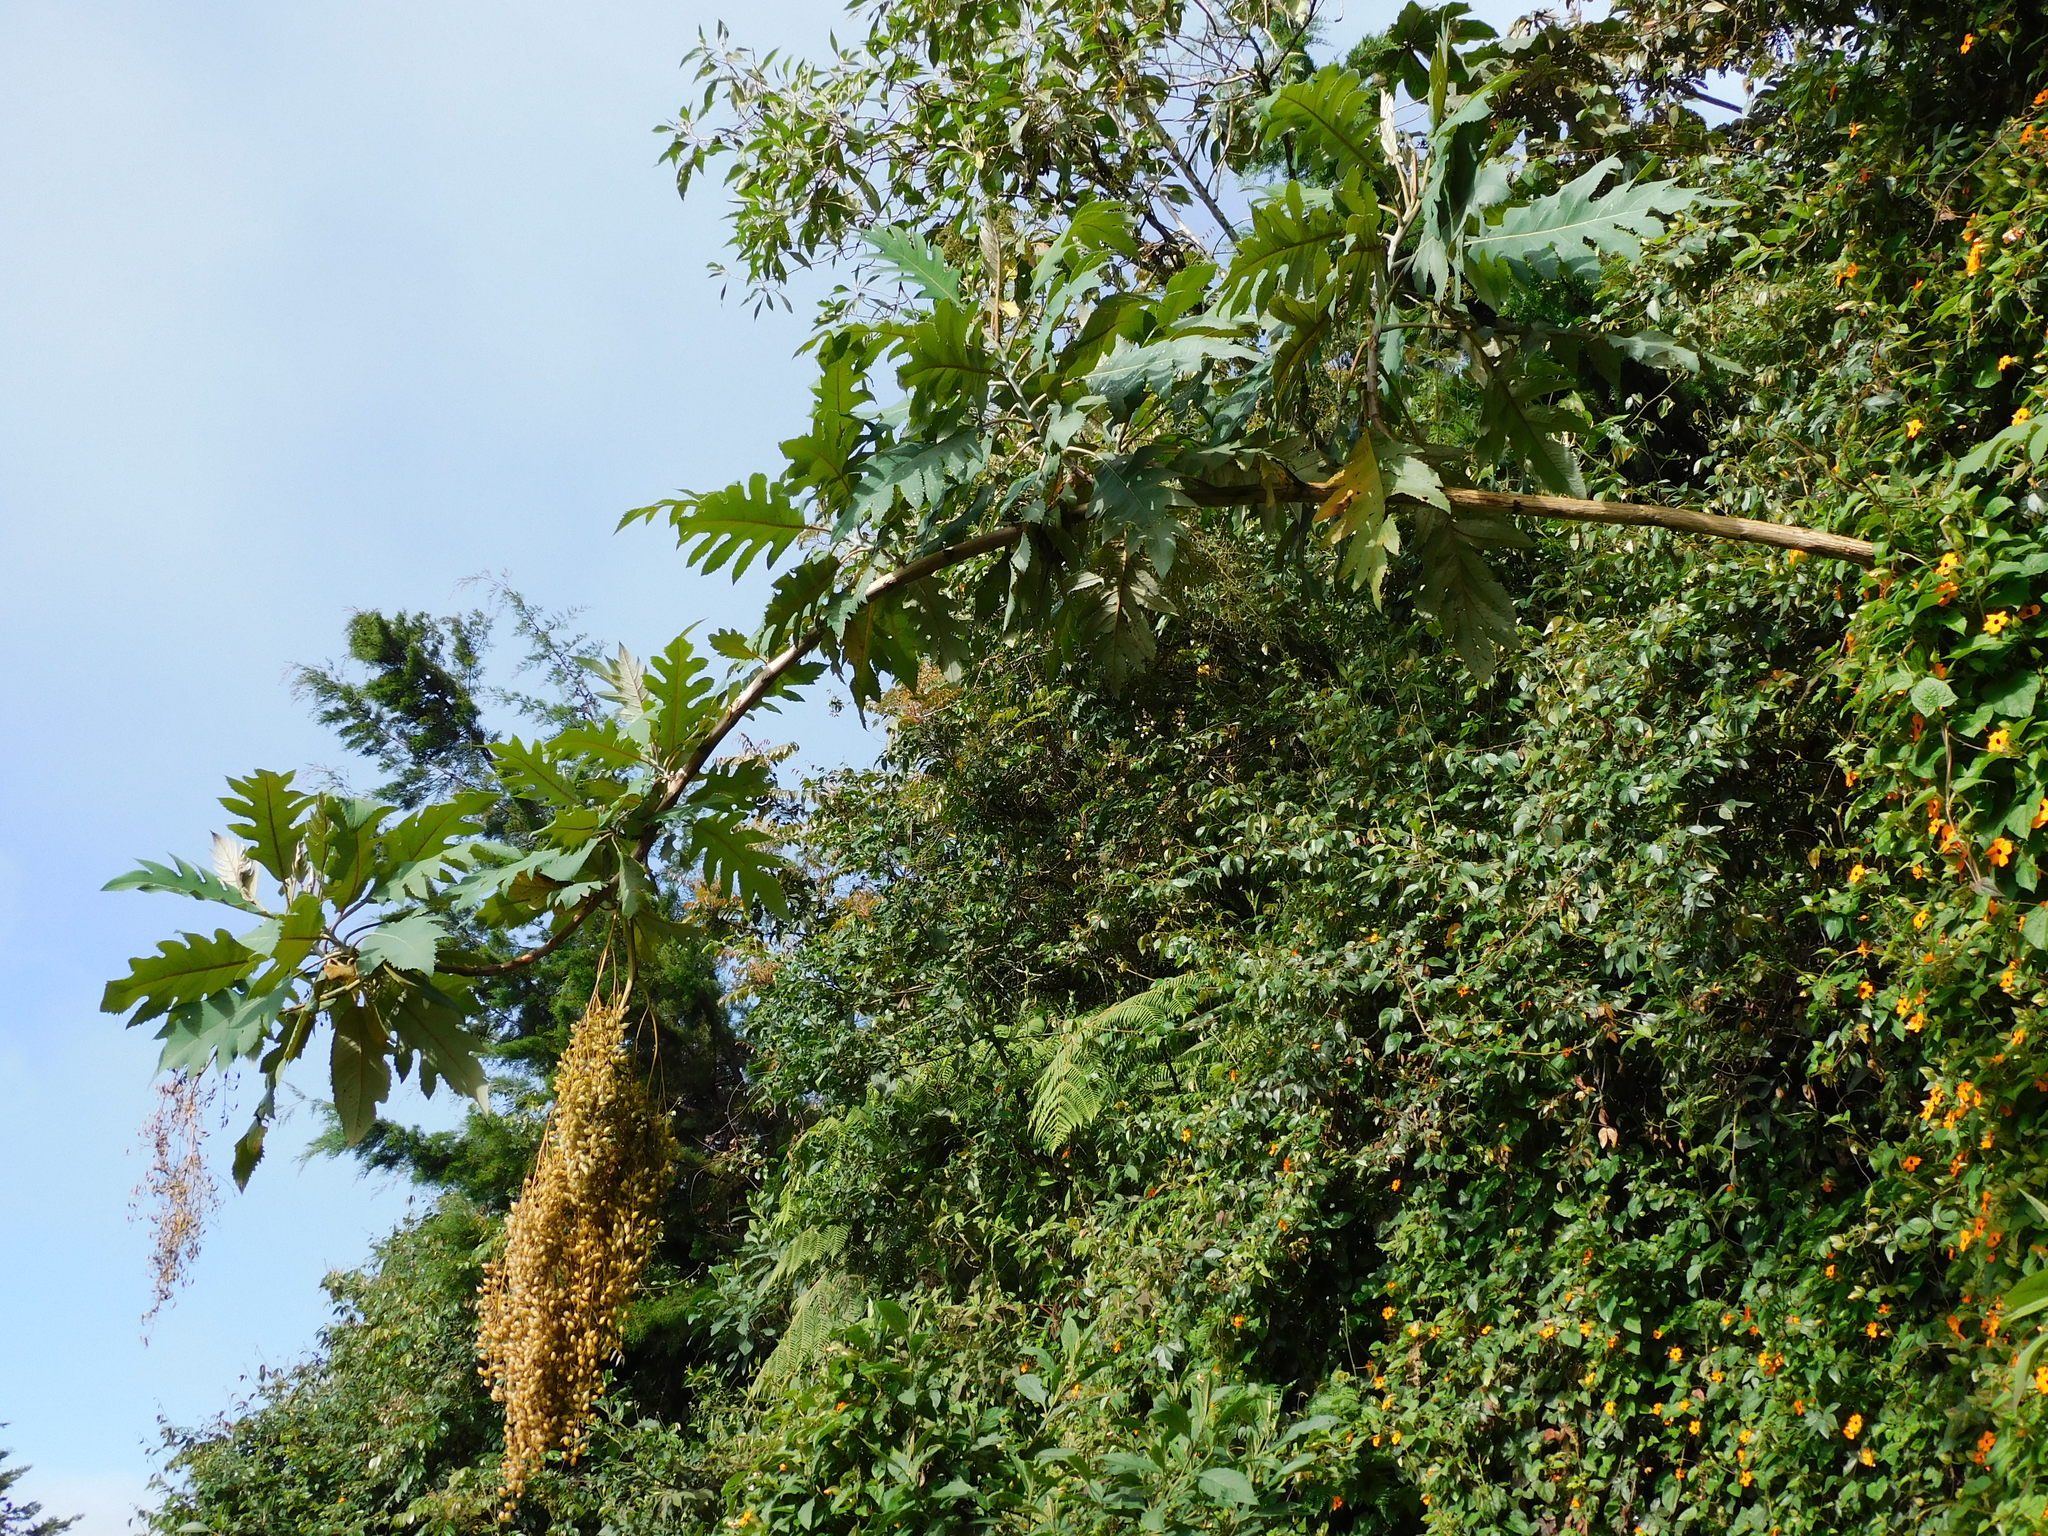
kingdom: Plantae
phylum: Tracheophyta
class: Magnoliopsida
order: Ranunculales
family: Papaveraceae
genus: Bocconia
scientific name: Bocconia frutescens
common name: Tree poppy
